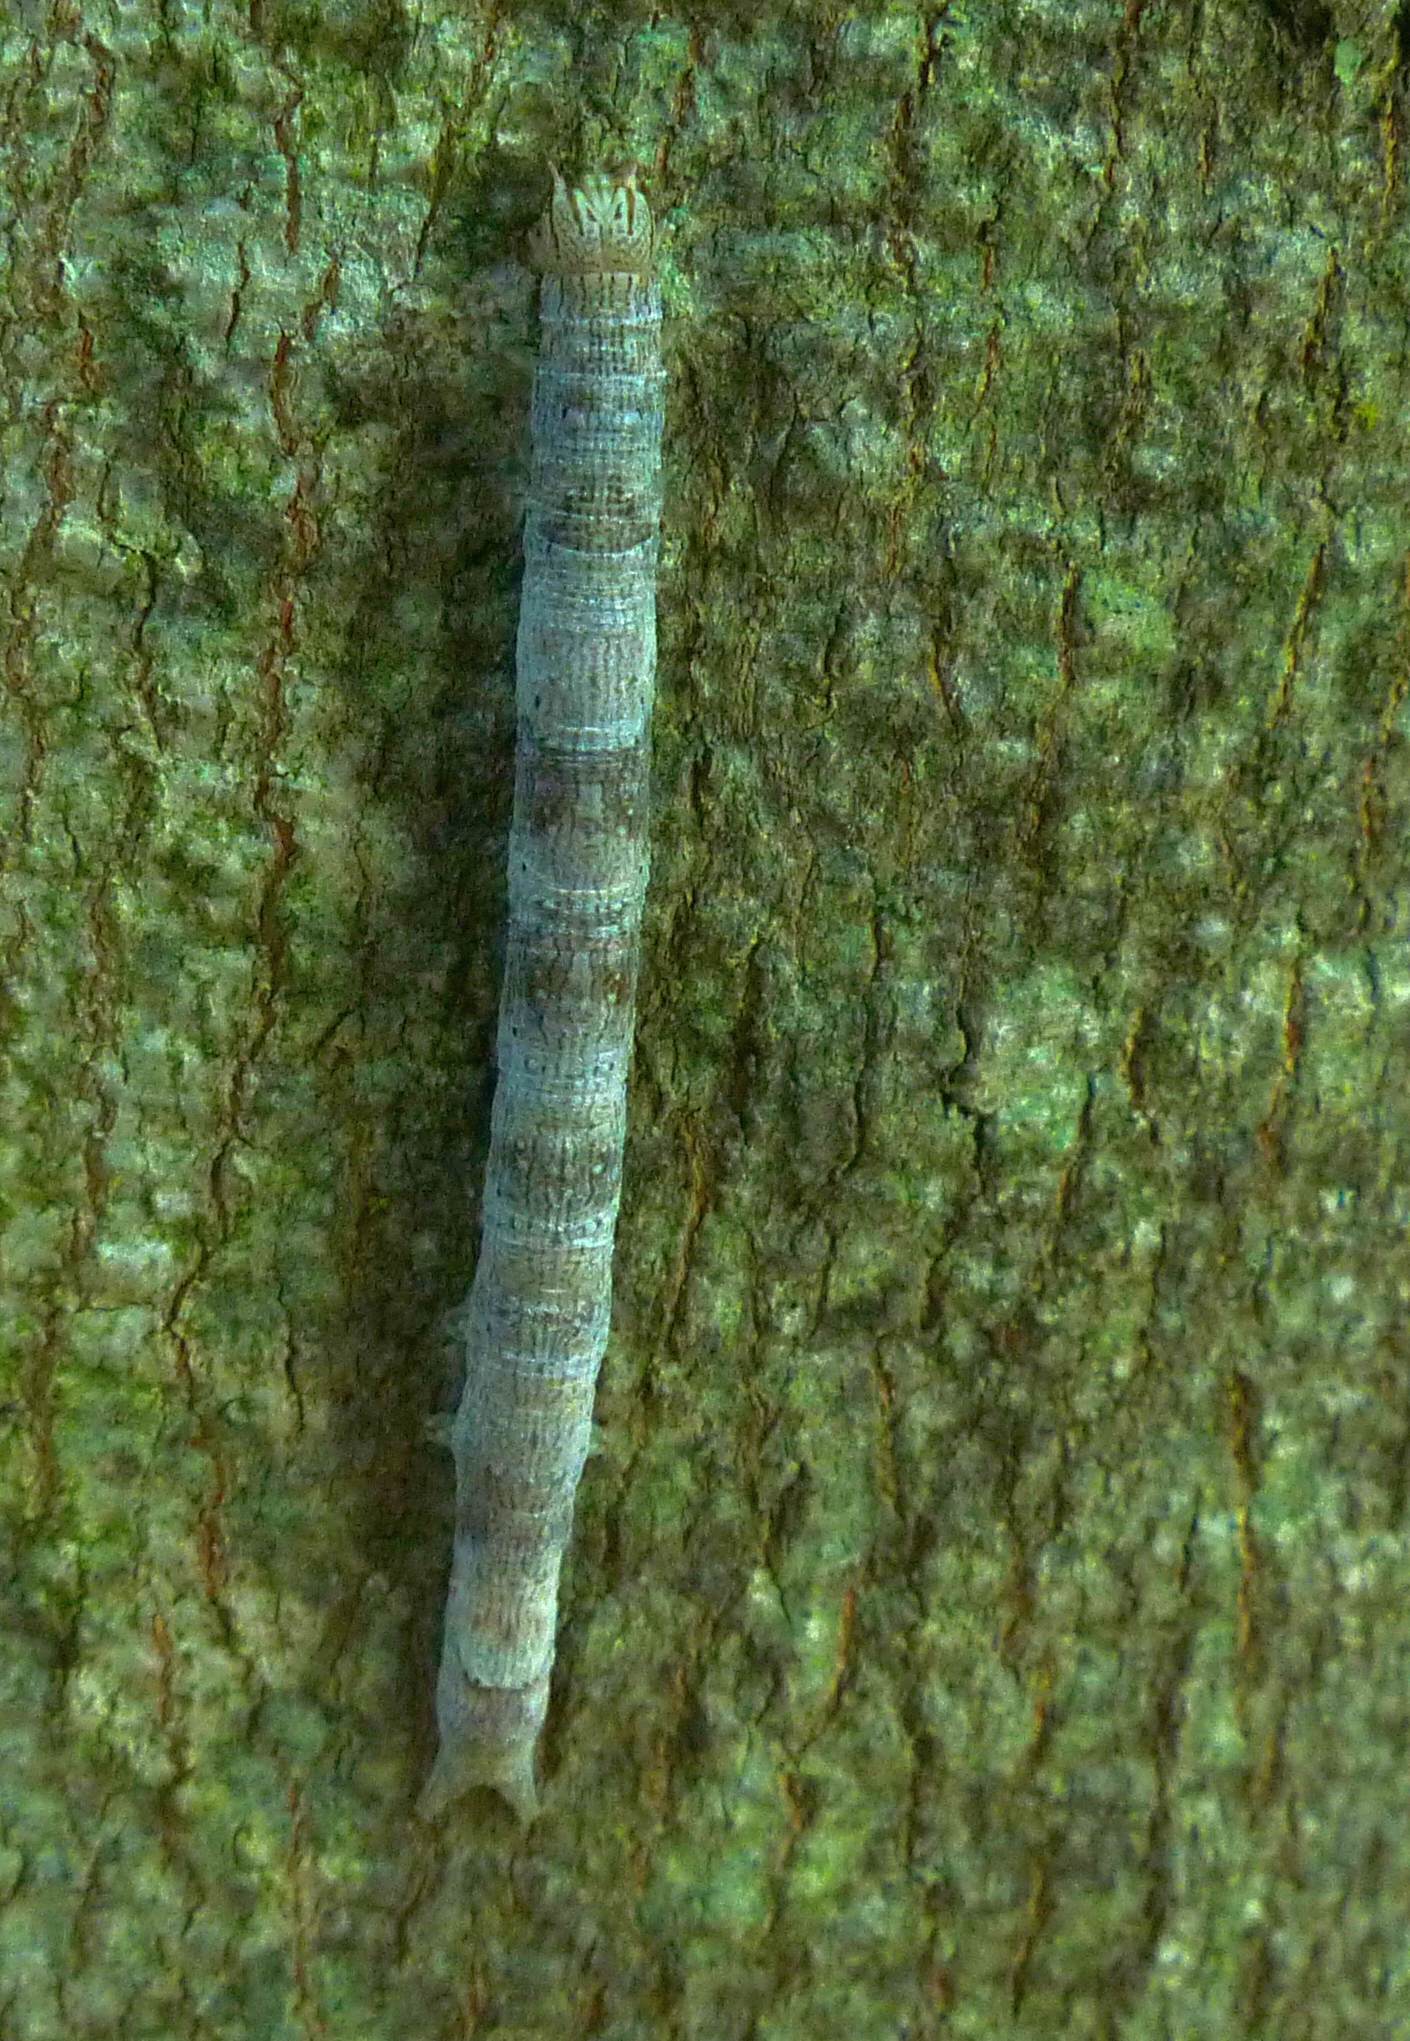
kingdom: Animalia
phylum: Arthropoda
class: Insecta
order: Lepidoptera
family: Erebidae
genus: Parallelia
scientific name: Parallelia bistriaris
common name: Maple looper moth
